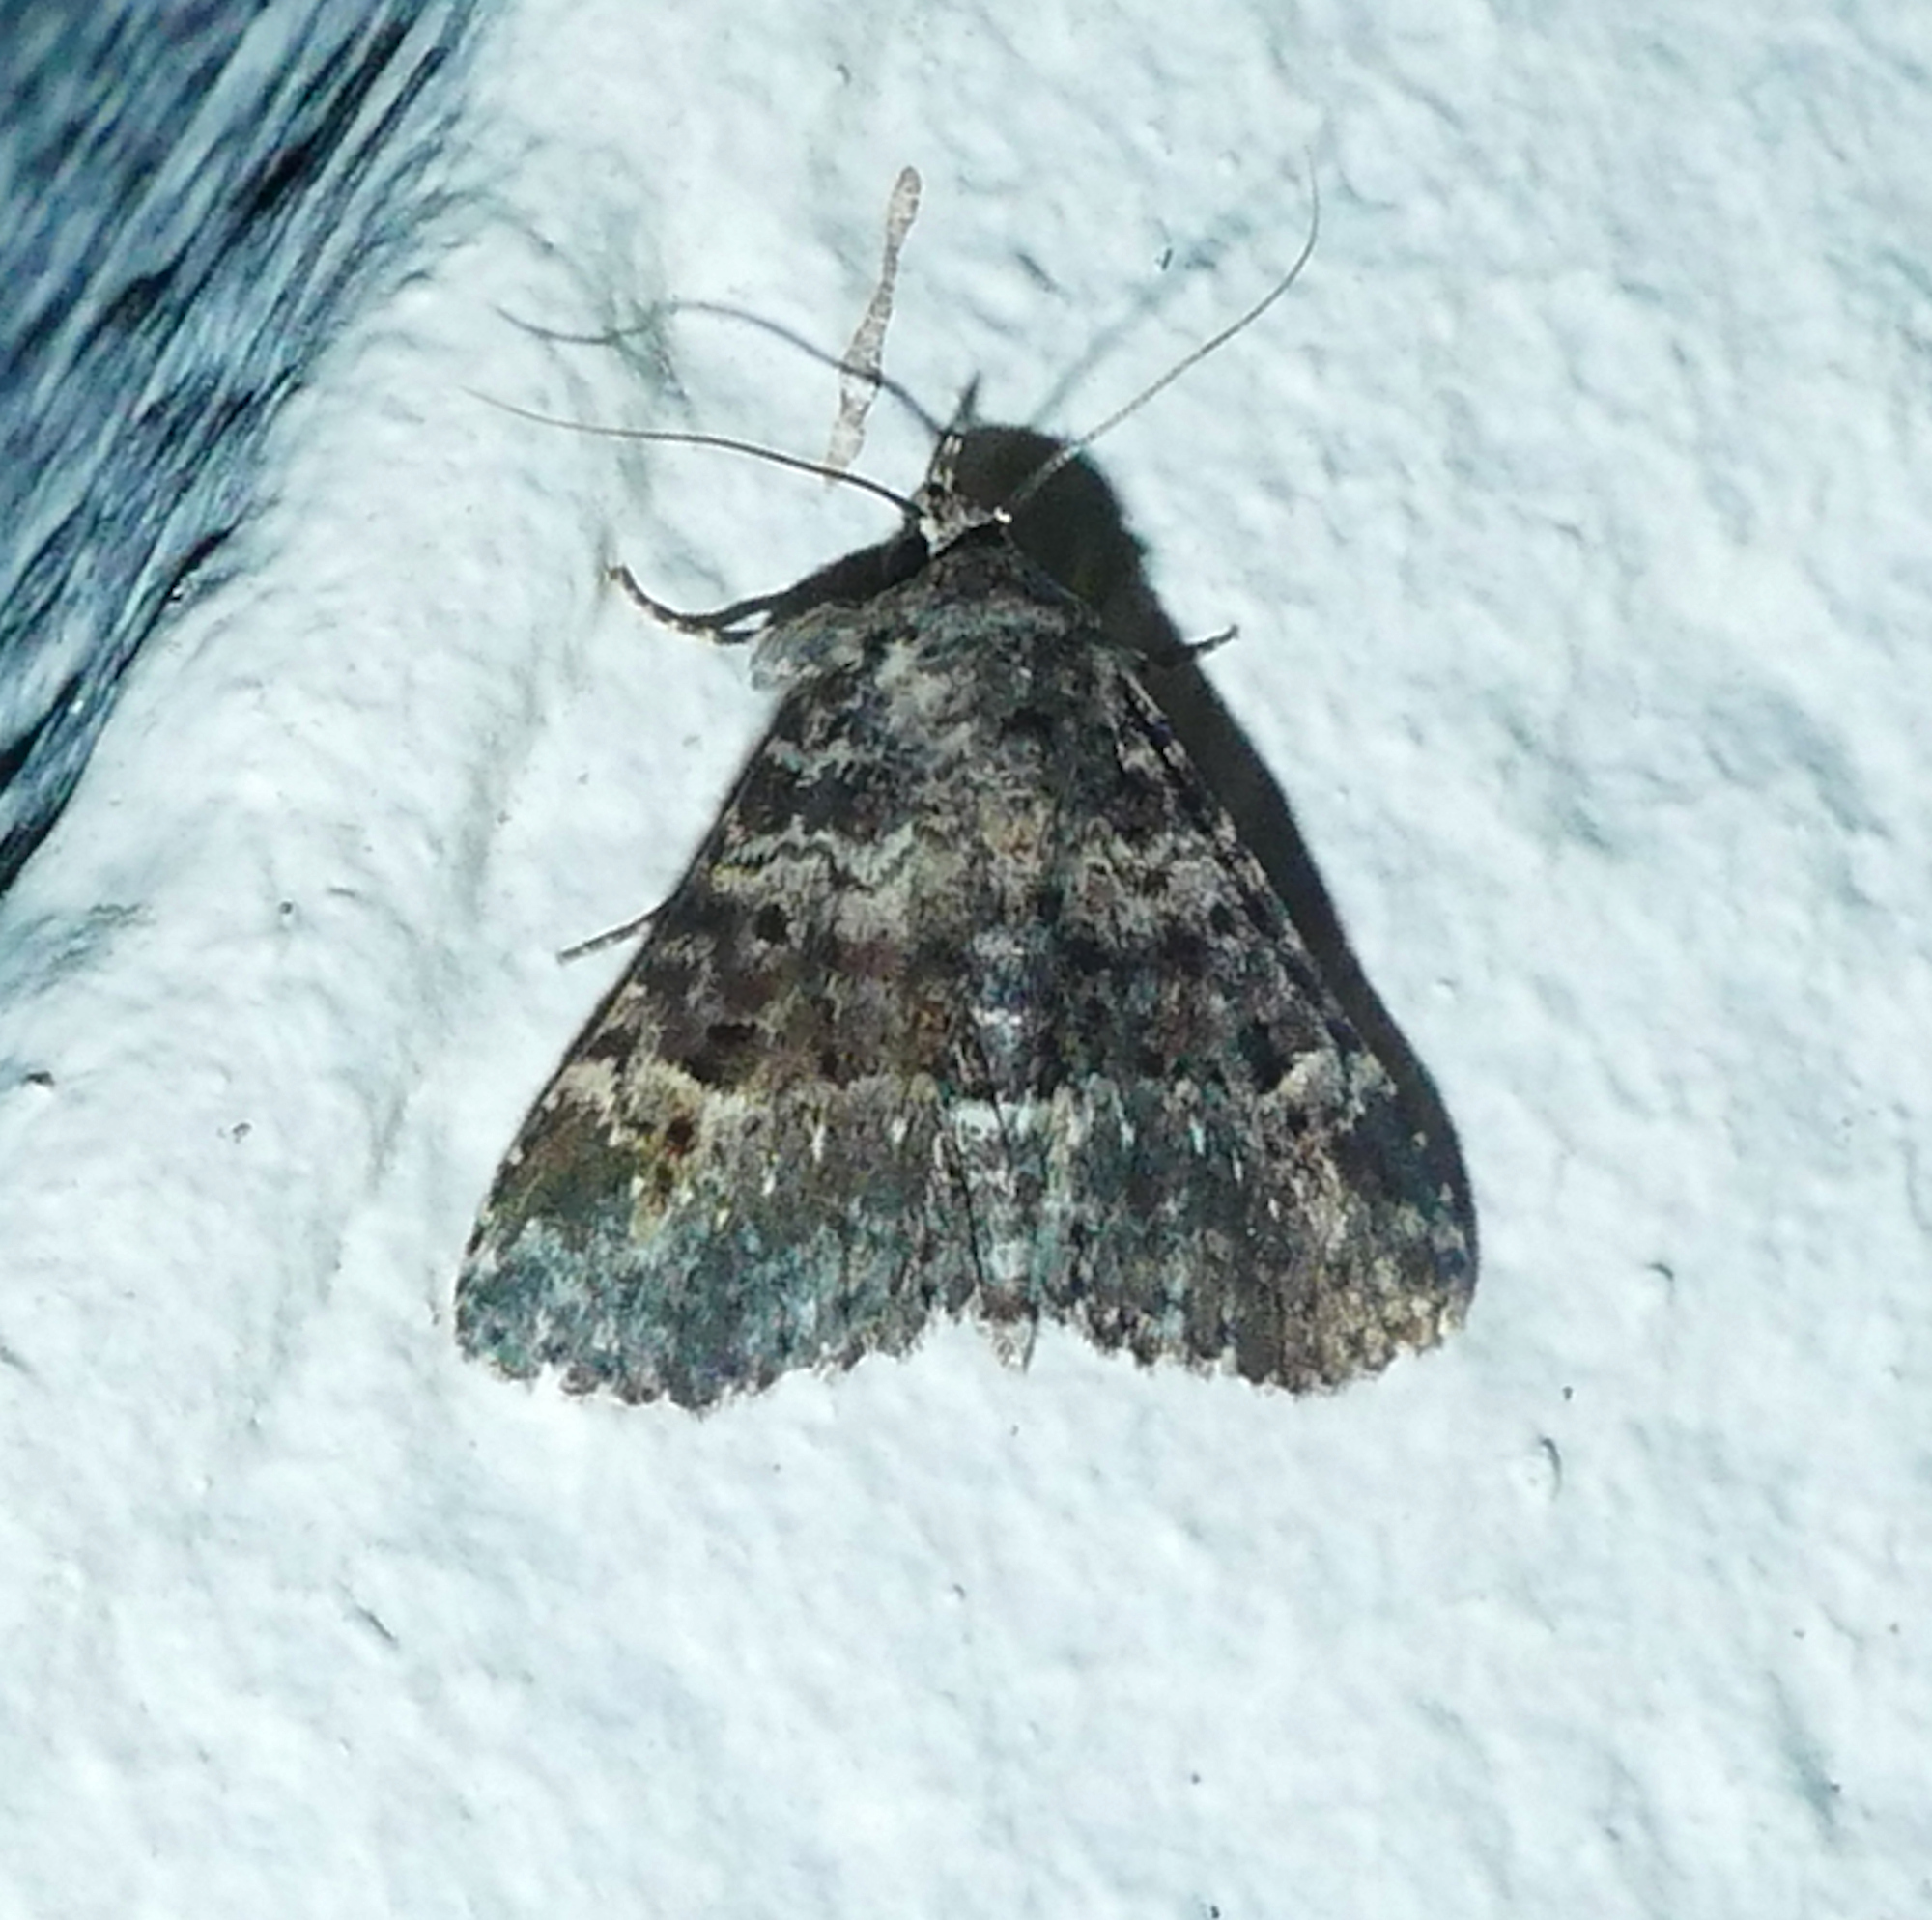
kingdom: Animalia
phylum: Arthropoda
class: Insecta
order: Lepidoptera
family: Erebidae
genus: Metalectra
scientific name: Metalectra discalis
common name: Common fungus moth
